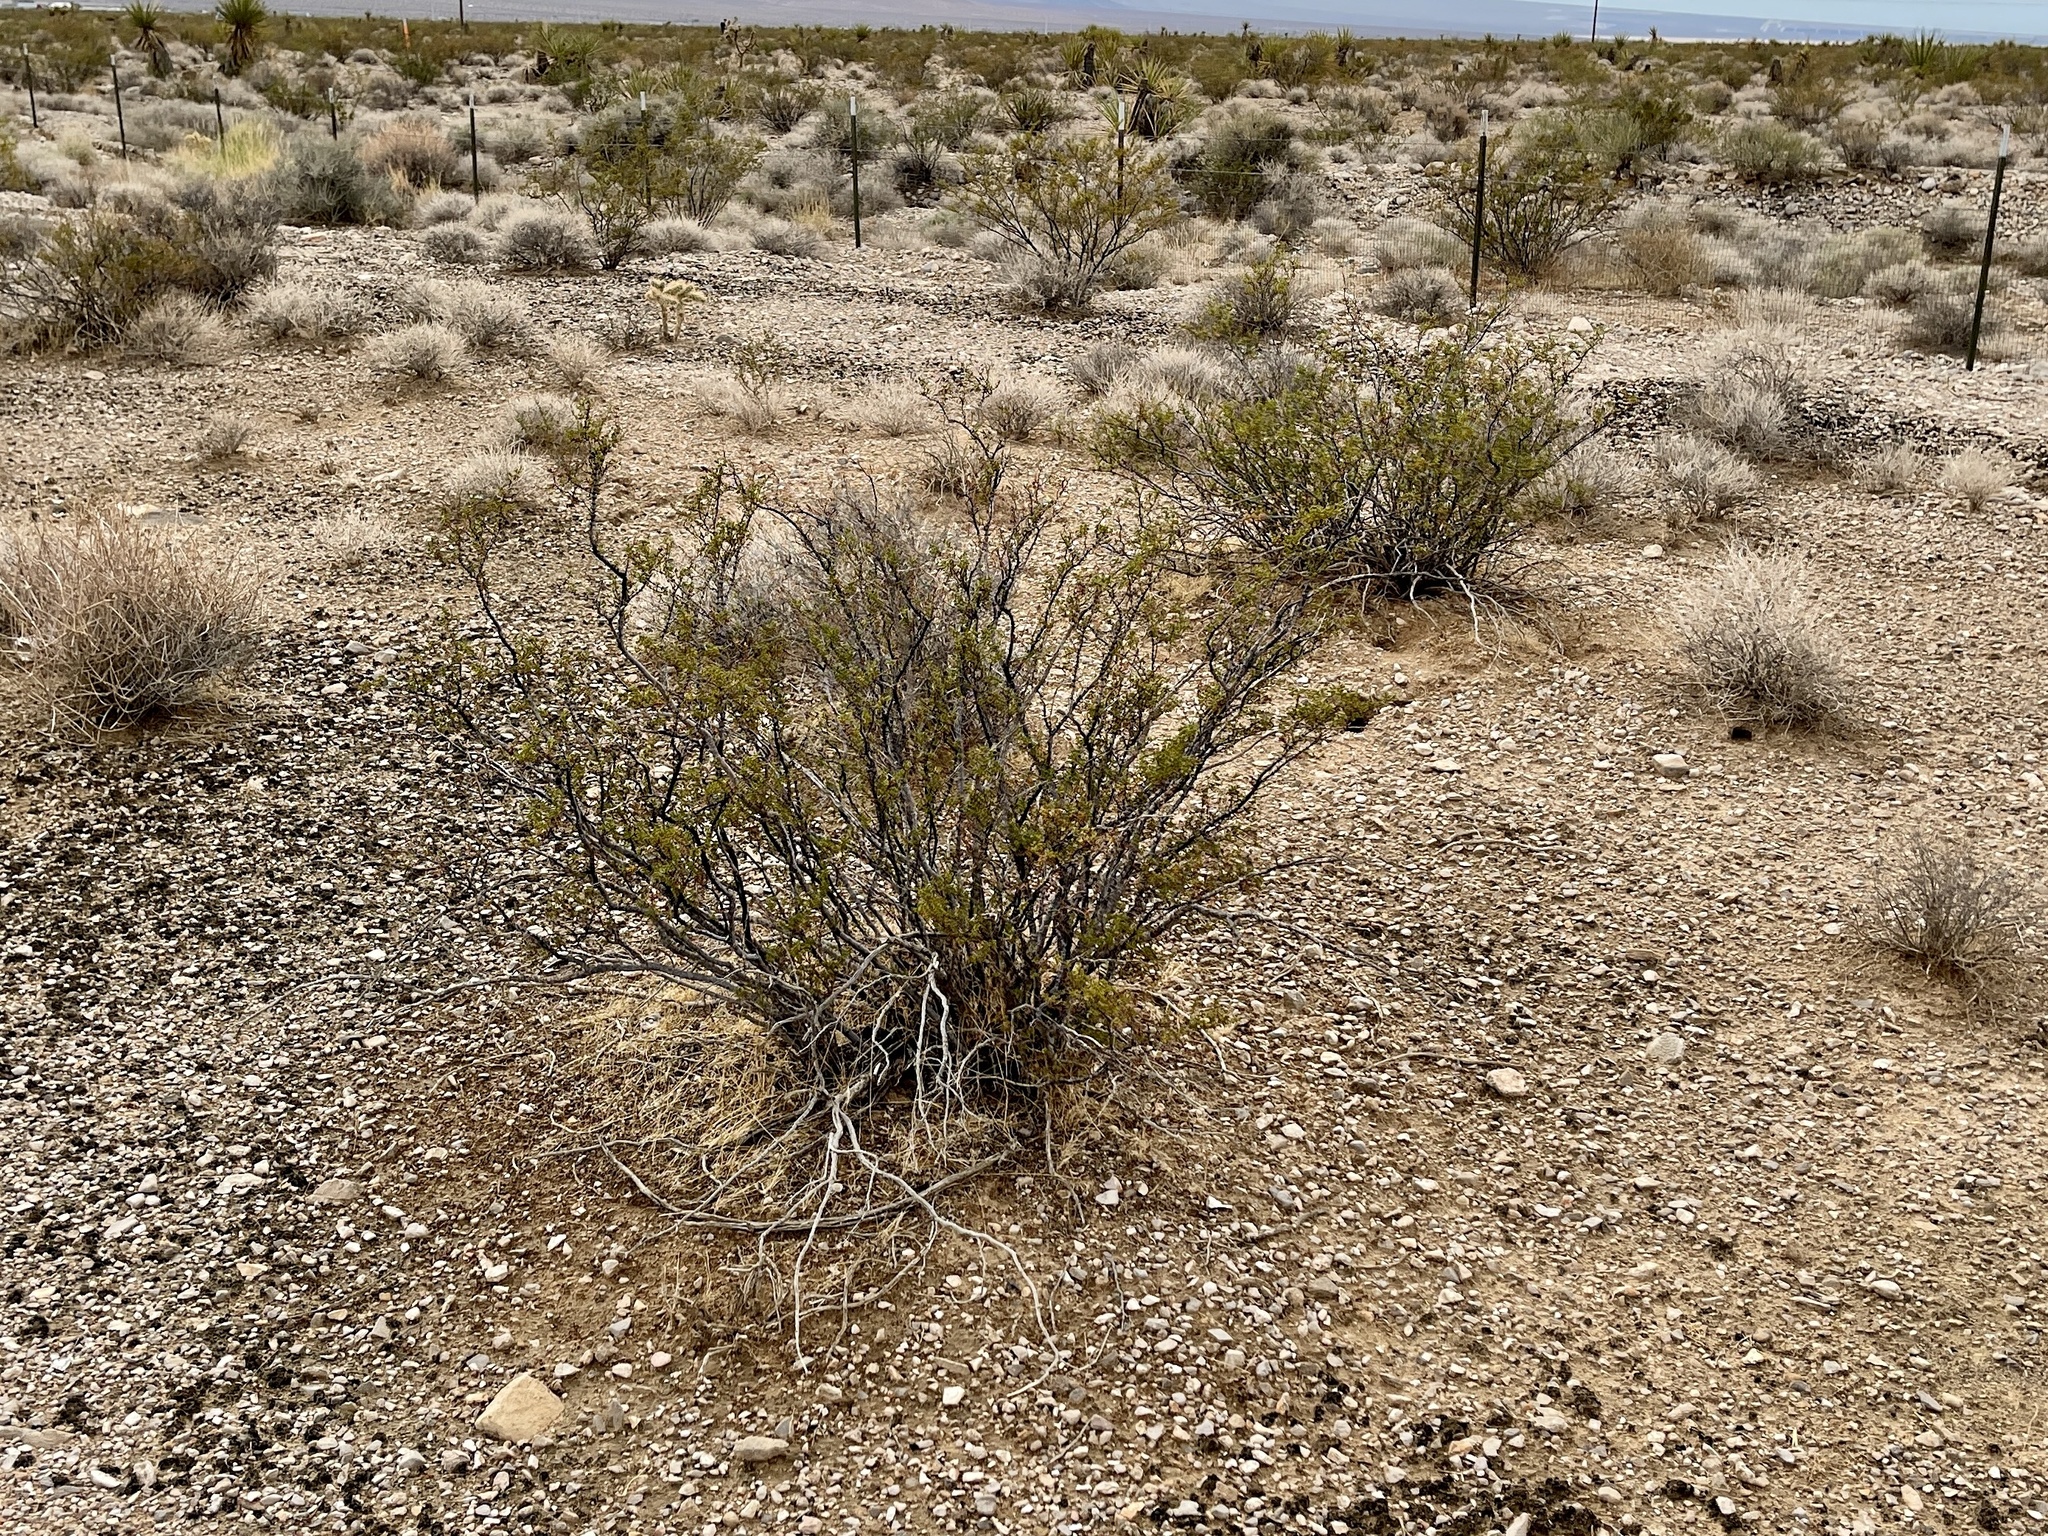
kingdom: Plantae
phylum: Tracheophyta
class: Magnoliopsida
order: Zygophyllales
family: Zygophyllaceae
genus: Larrea
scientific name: Larrea tridentata
